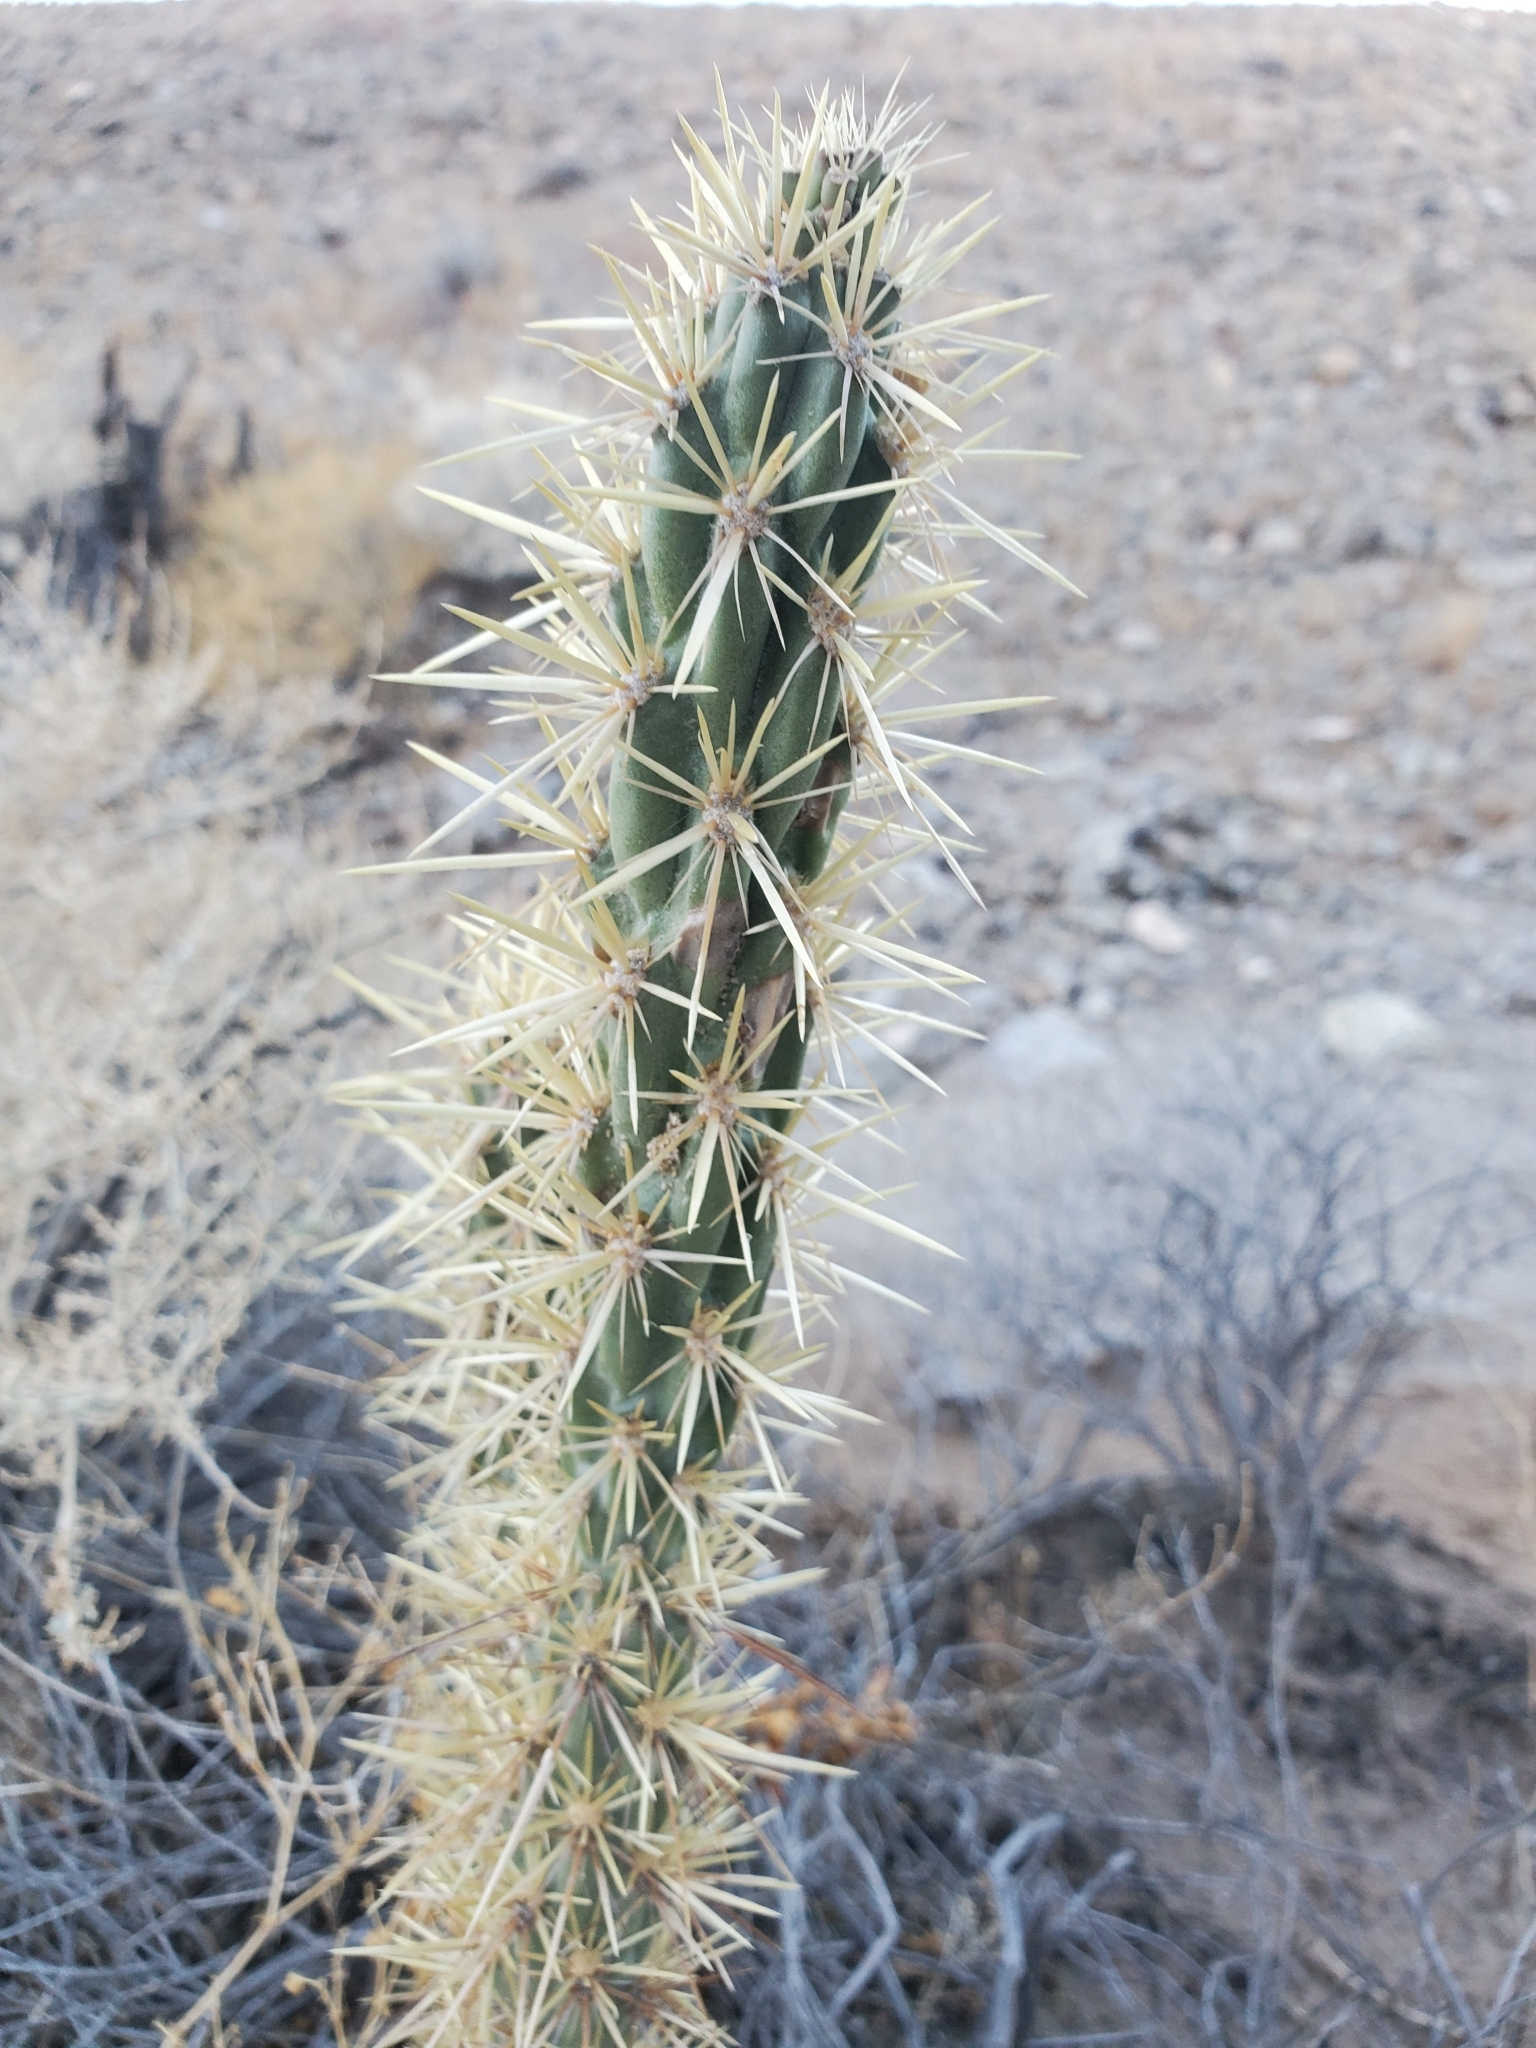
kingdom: Plantae
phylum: Tracheophyta
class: Magnoliopsida
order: Caryophyllales
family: Cactaceae
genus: Cylindropuntia
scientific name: Cylindropuntia acanthocarpa
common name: Buckhorn cholla
